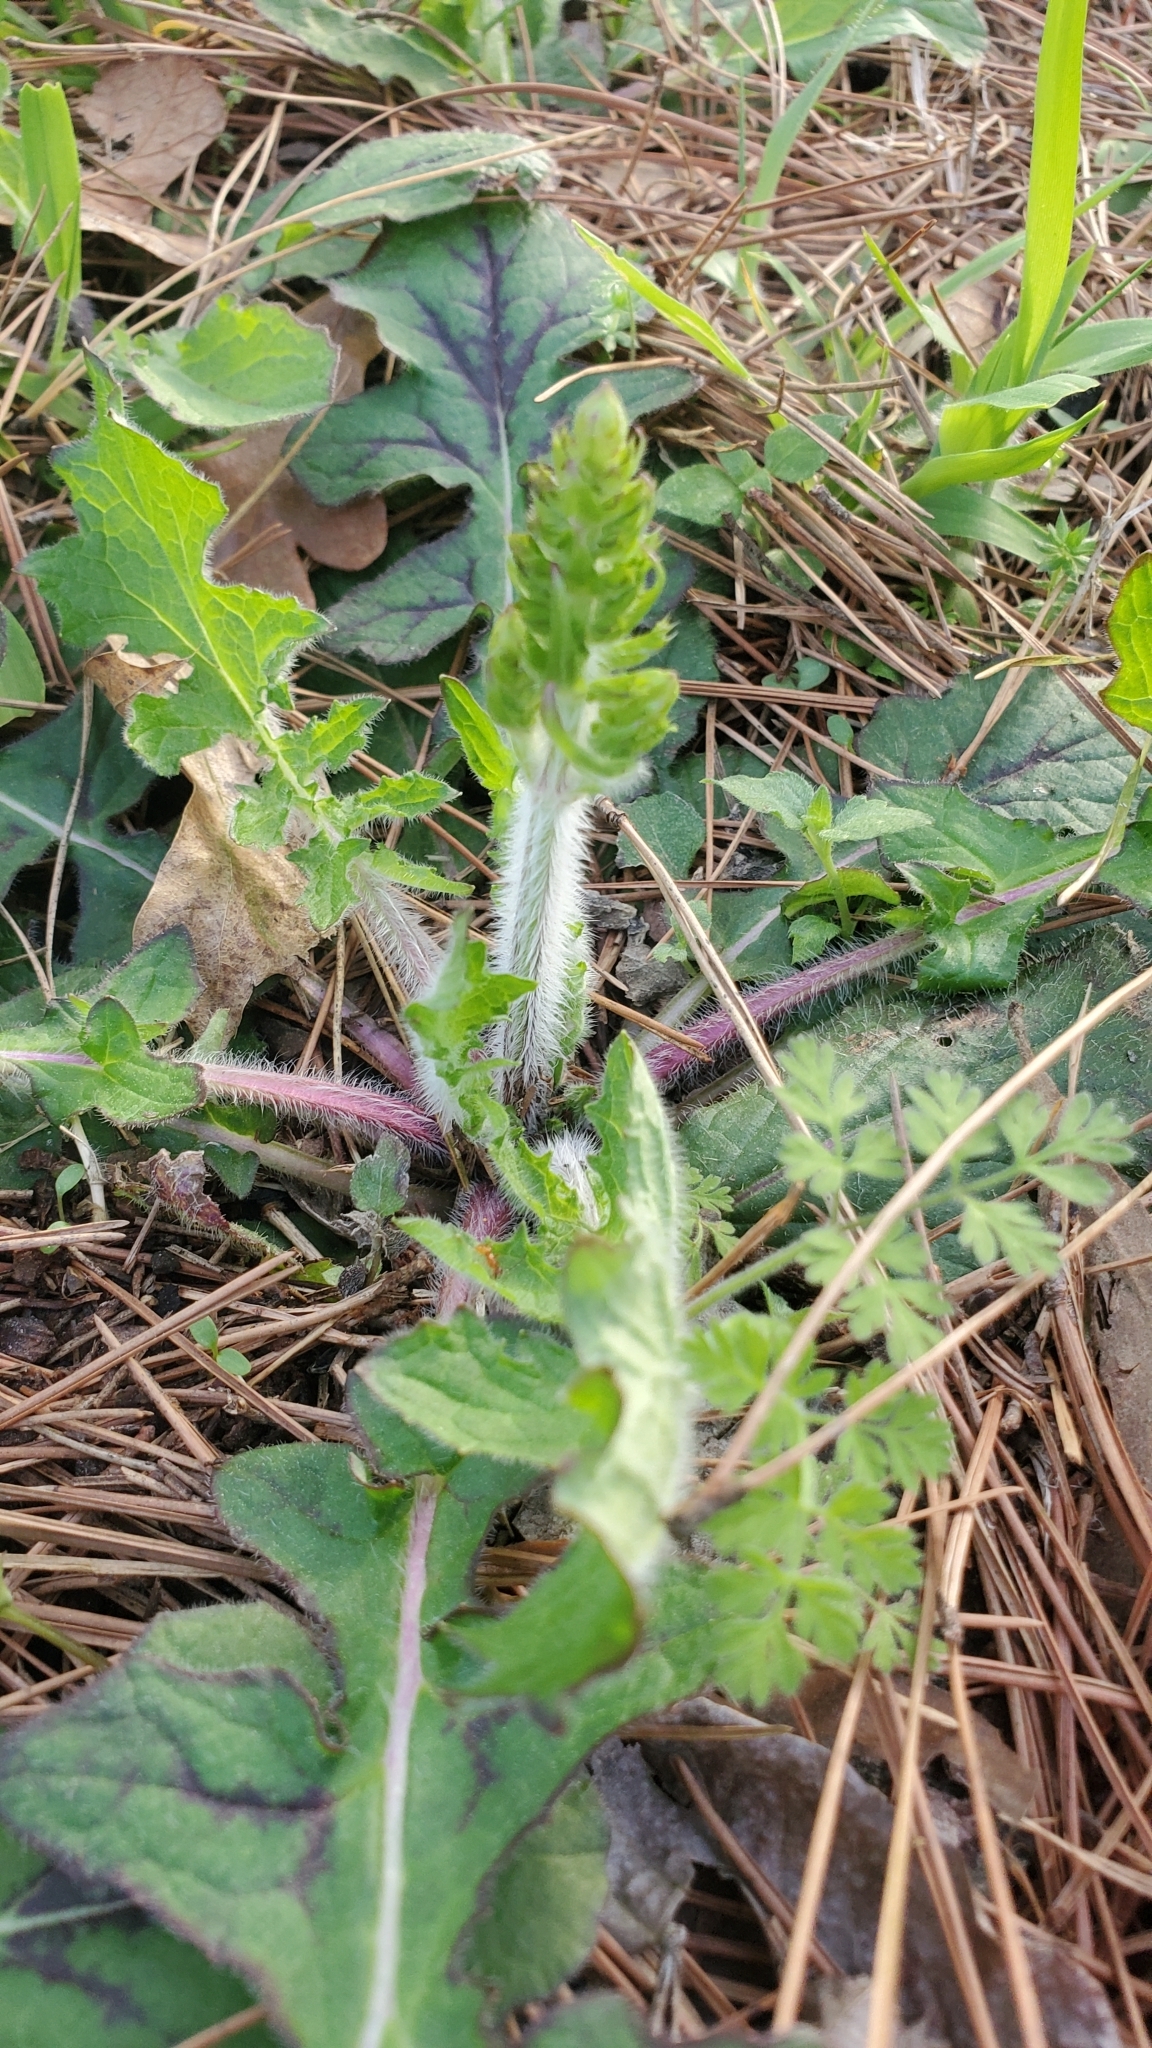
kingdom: Plantae
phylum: Tracheophyta
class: Magnoliopsida
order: Lamiales
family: Lamiaceae
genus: Salvia
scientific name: Salvia lyrata
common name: Cancerweed
